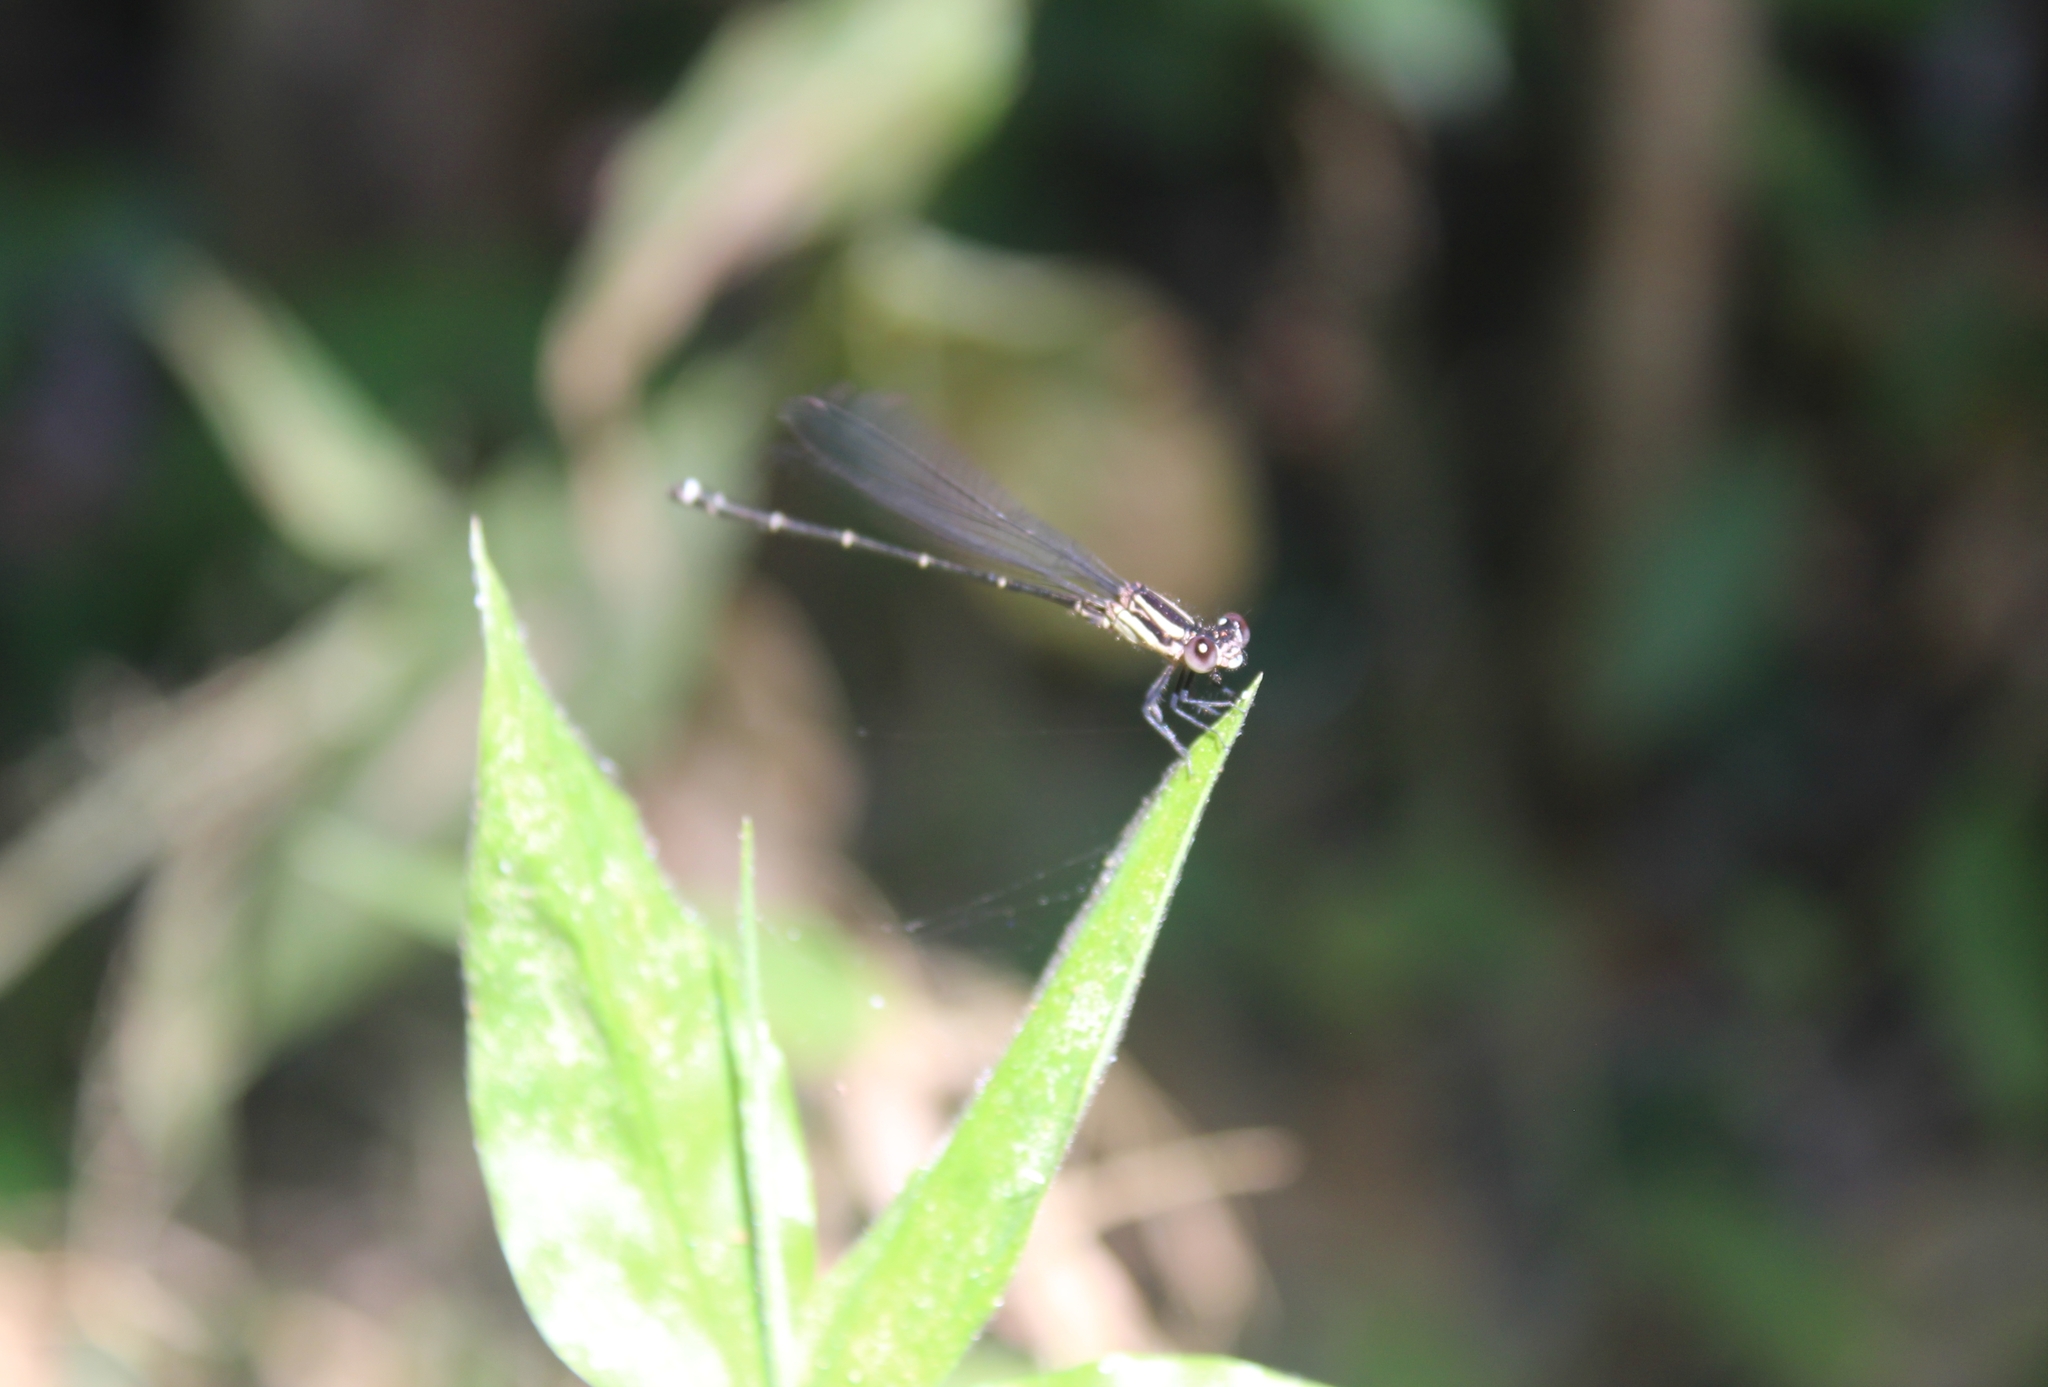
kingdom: Animalia
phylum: Arthropoda
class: Insecta
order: Odonata
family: Coenagrionidae
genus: Argia
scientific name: Argia translata
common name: Dusky dancer
